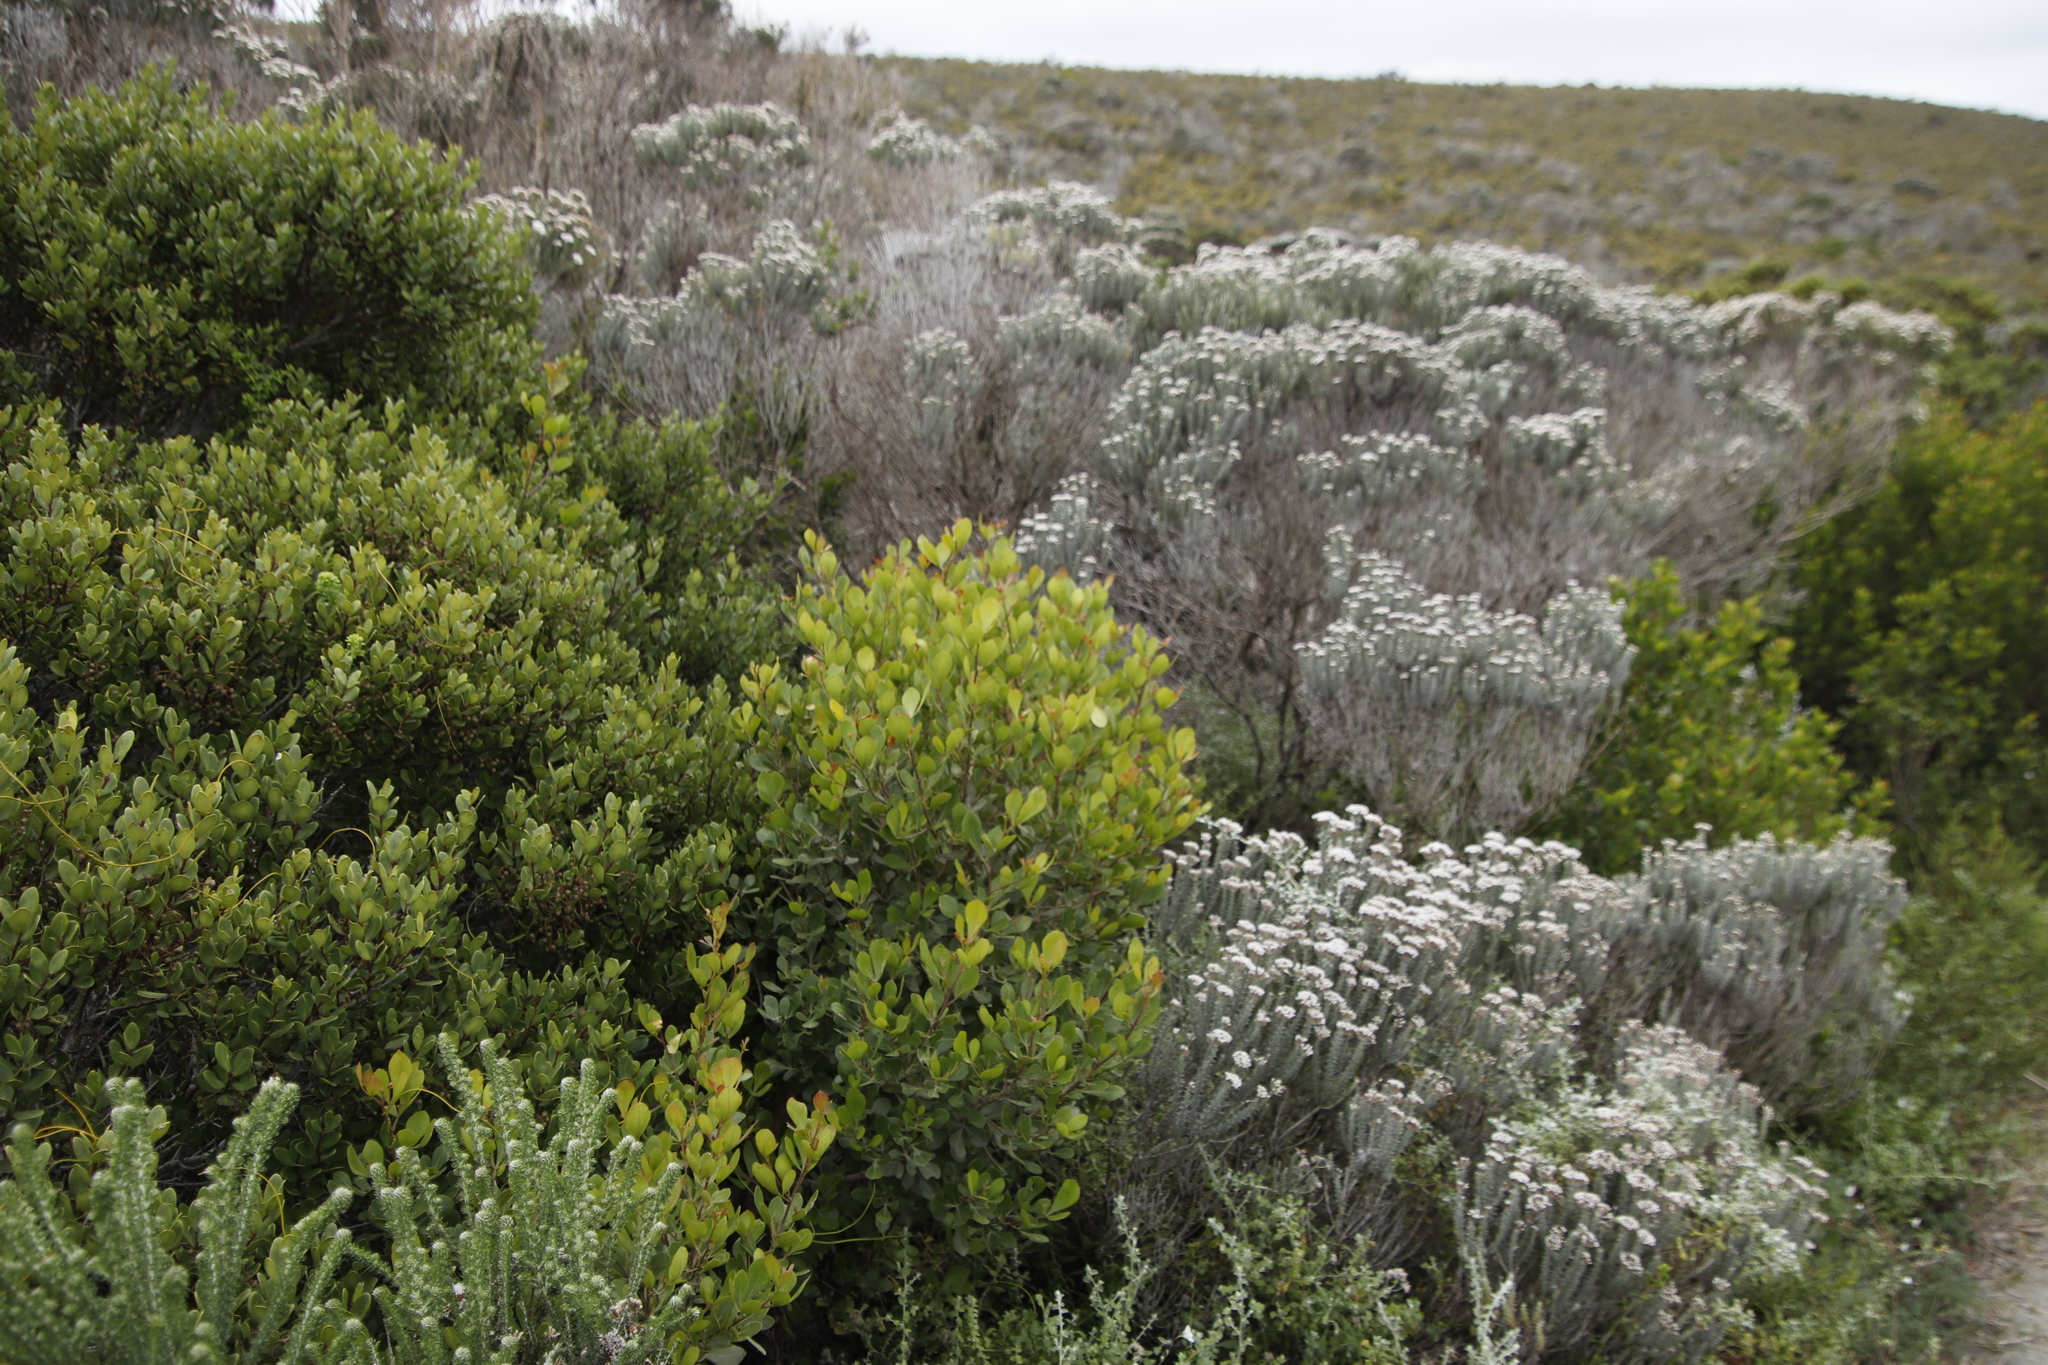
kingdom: Plantae
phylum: Tracheophyta
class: Magnoliopsida
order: Sapindales
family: Anacardiaceae
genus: Searsia
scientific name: Searsia lucida
